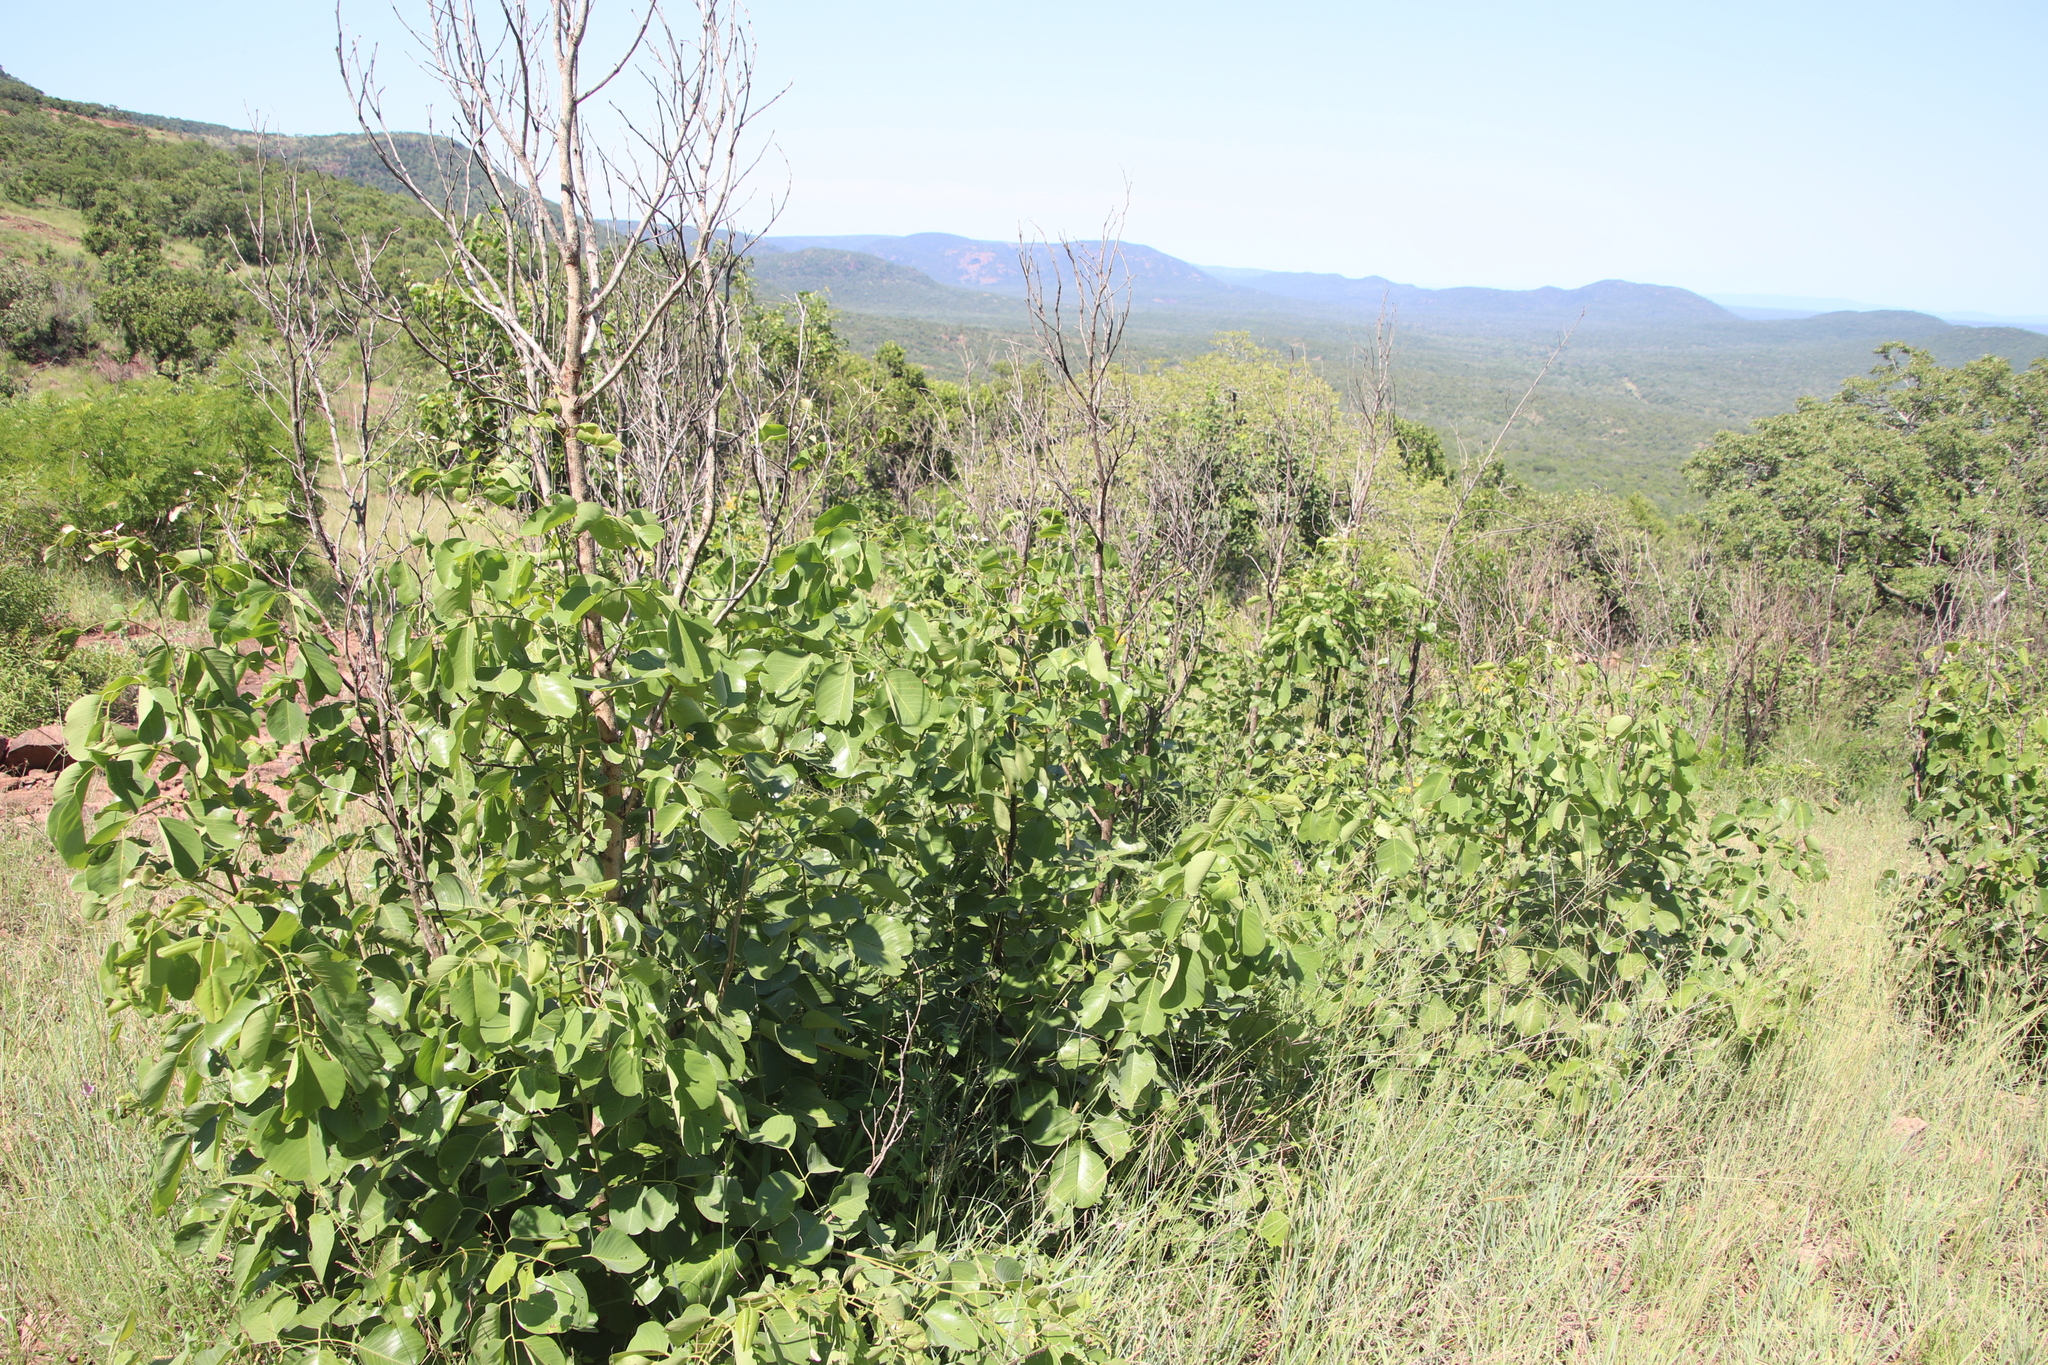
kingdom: Plantae
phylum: Tracheophyta
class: Magnoliopsida
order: Fabales
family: Fabaceae
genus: Pterocarpus
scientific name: Pterocarpus rotundifolius
